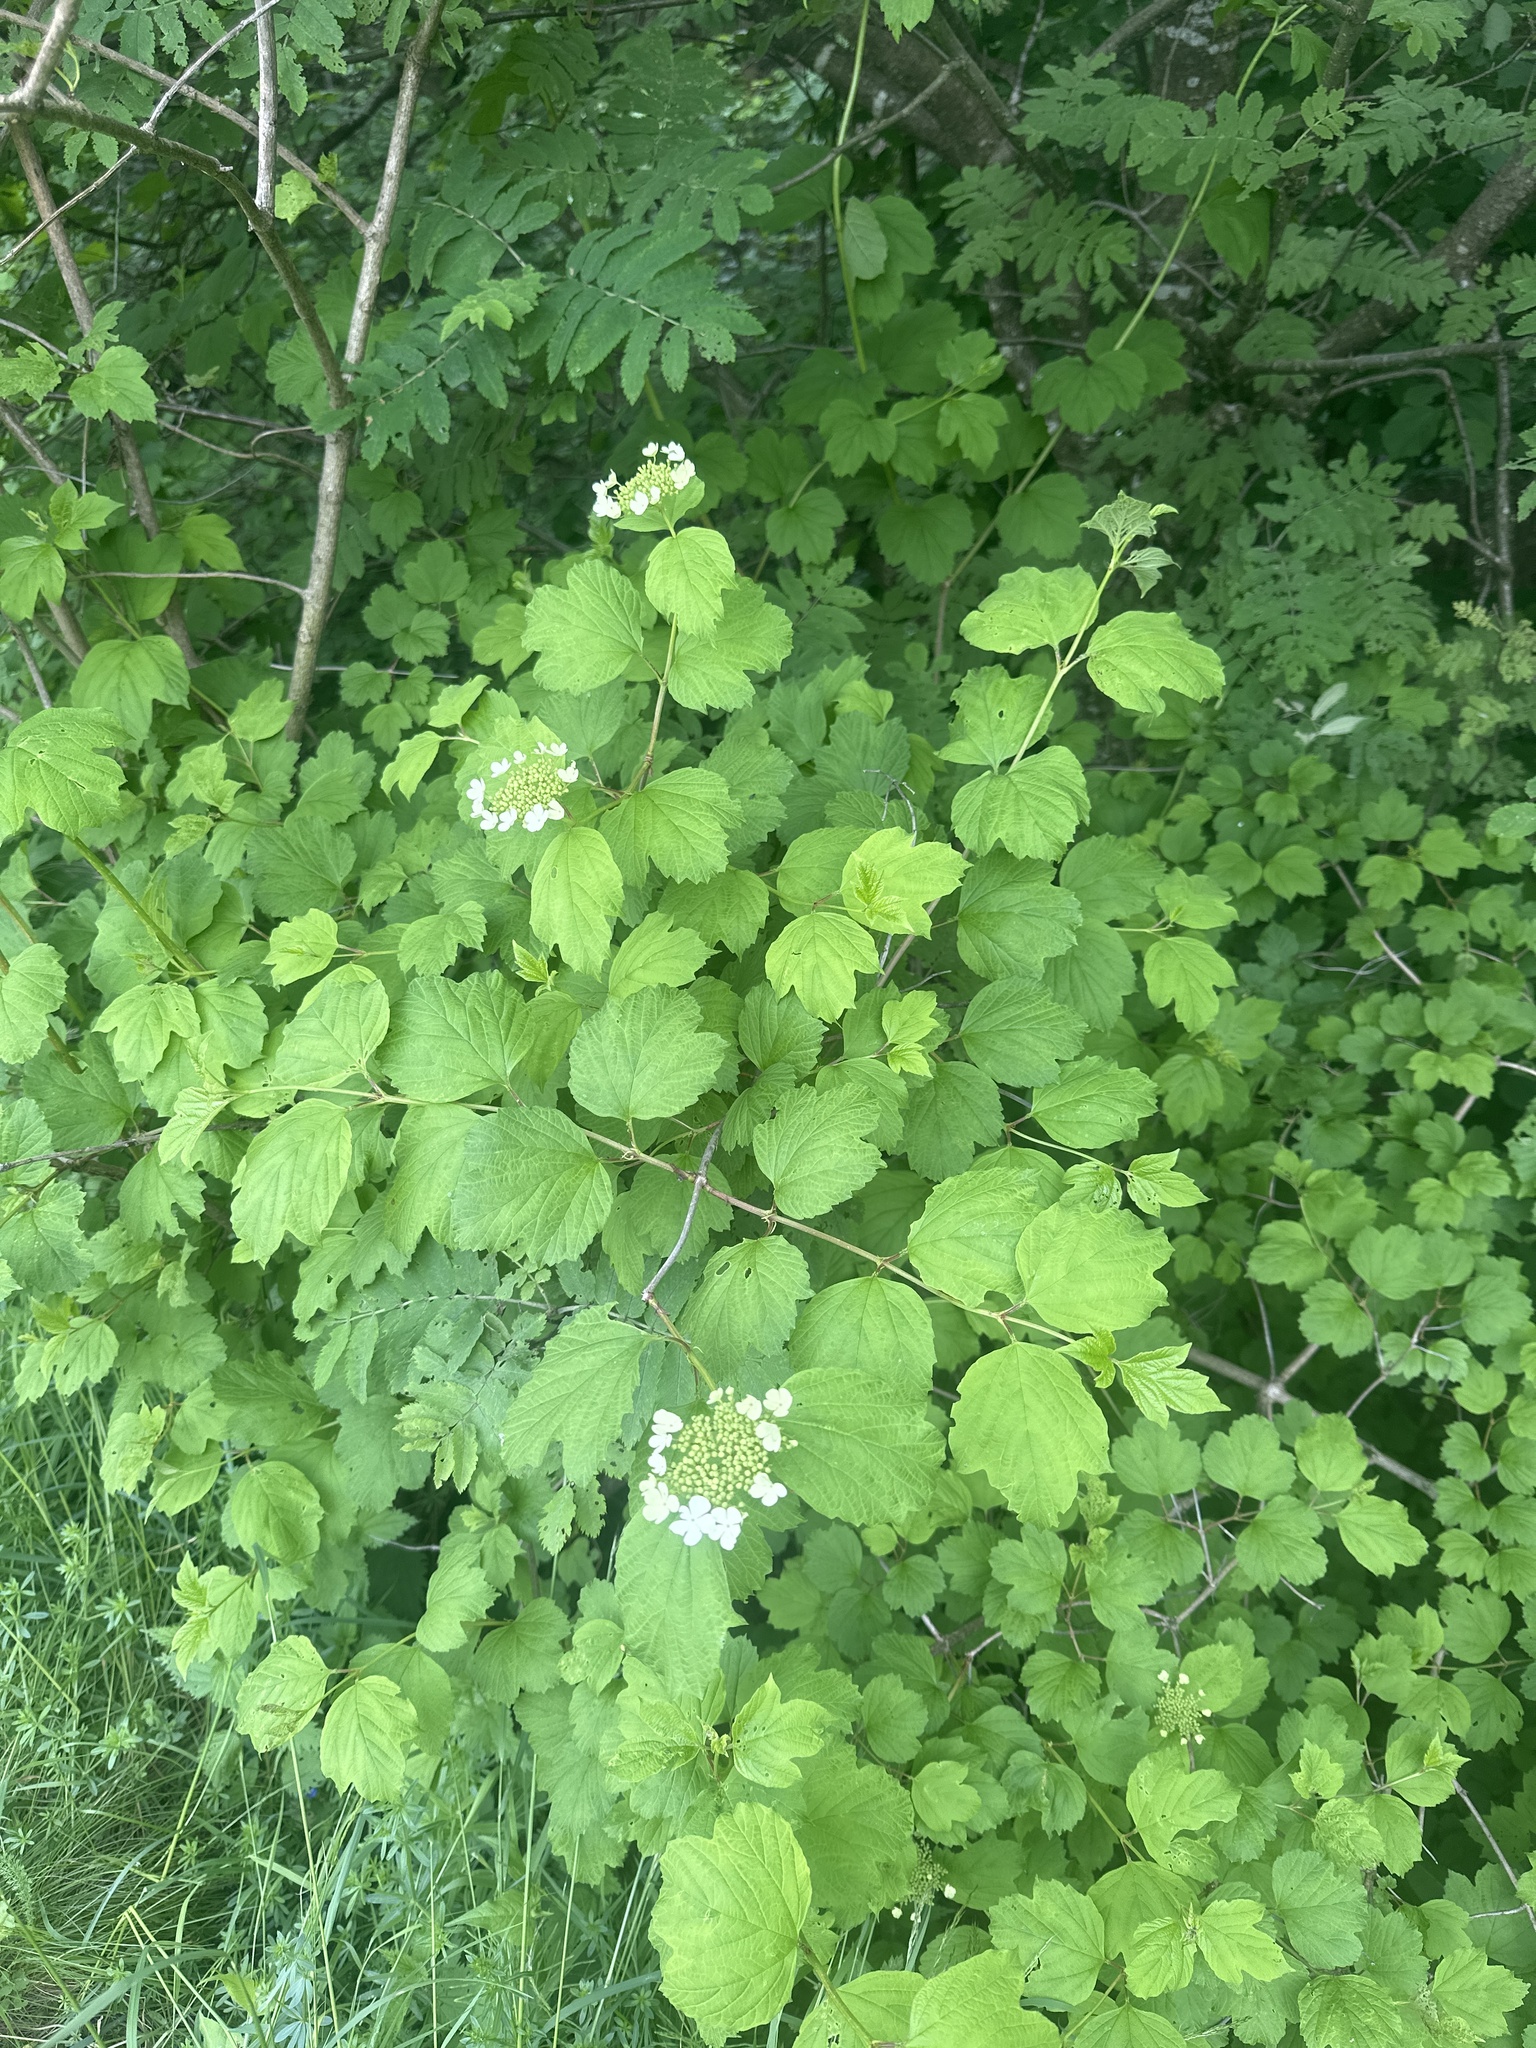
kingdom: Plantae
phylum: Tracheophyta
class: Magnoliopsida
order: Dipsacales
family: Viburnaceae
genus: Viburnum
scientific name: Viburnum opulus
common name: Guelder-rose
